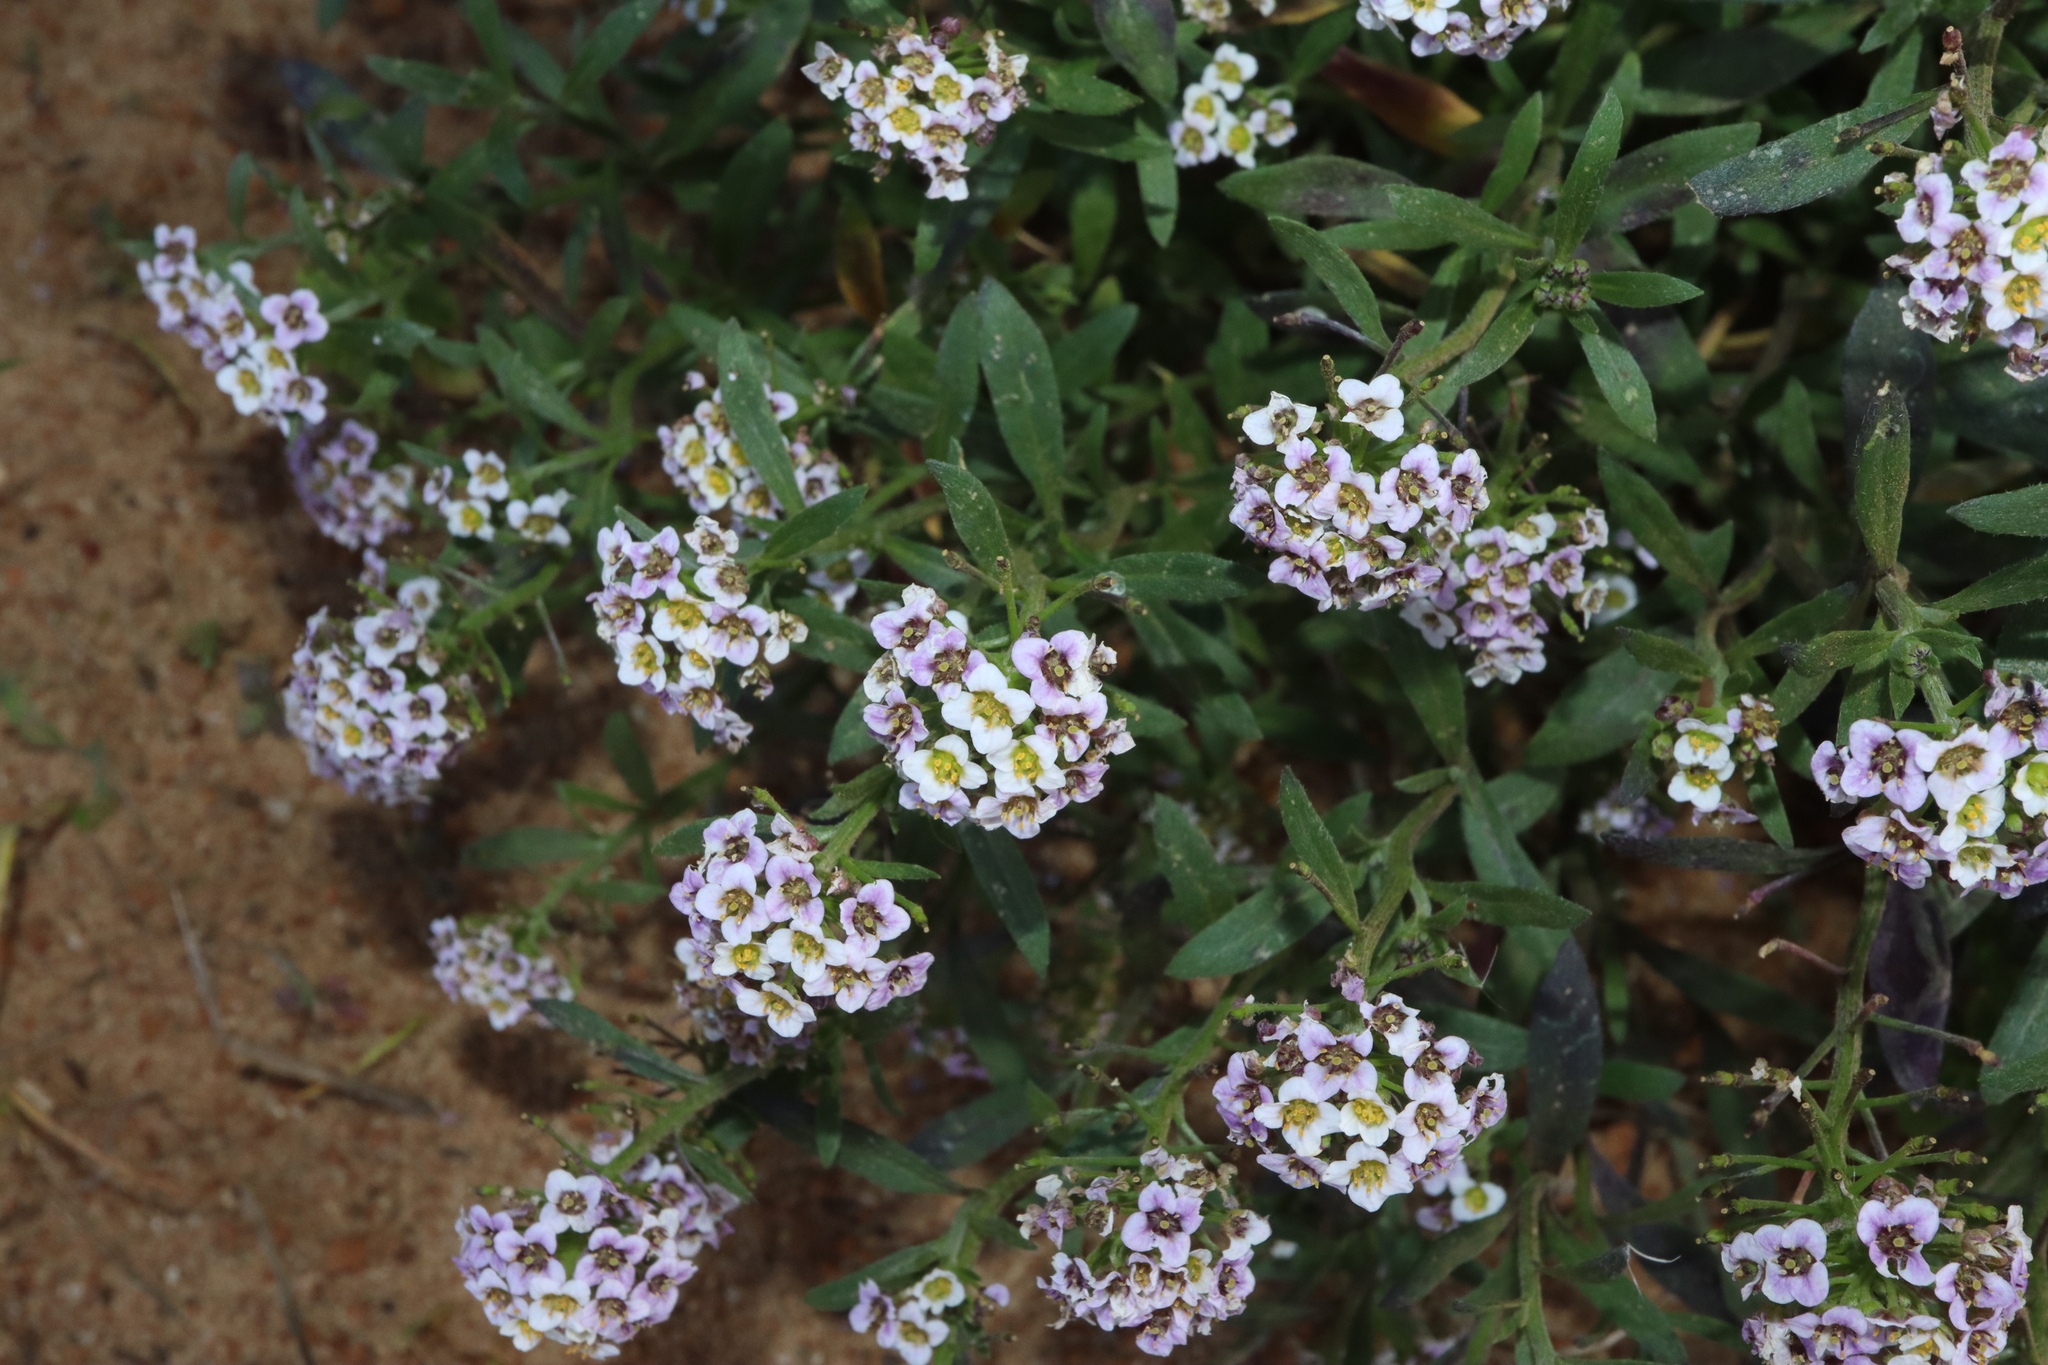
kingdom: Plantae
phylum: Tracheophyta
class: Magnoliopsida
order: Brassicales
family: Brassicaceae
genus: Lobularia
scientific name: Lobularia maritima
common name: Sweet alison
